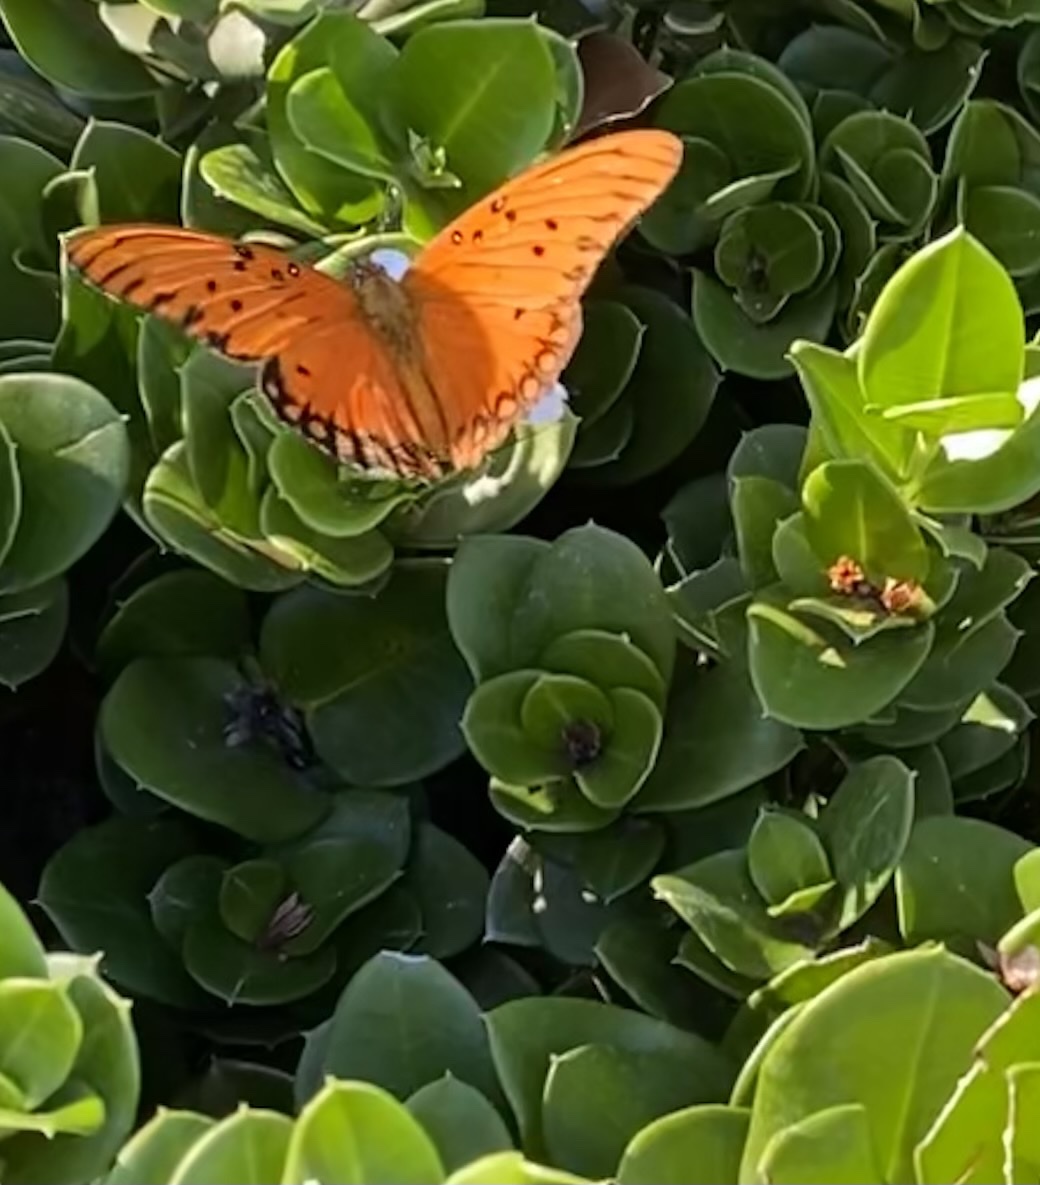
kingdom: Animalia
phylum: Arthropoda
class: Insecta
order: Lepidoptera
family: Nymphalidae
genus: Dione
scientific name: Dione vanillae
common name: Gulf fritillary
